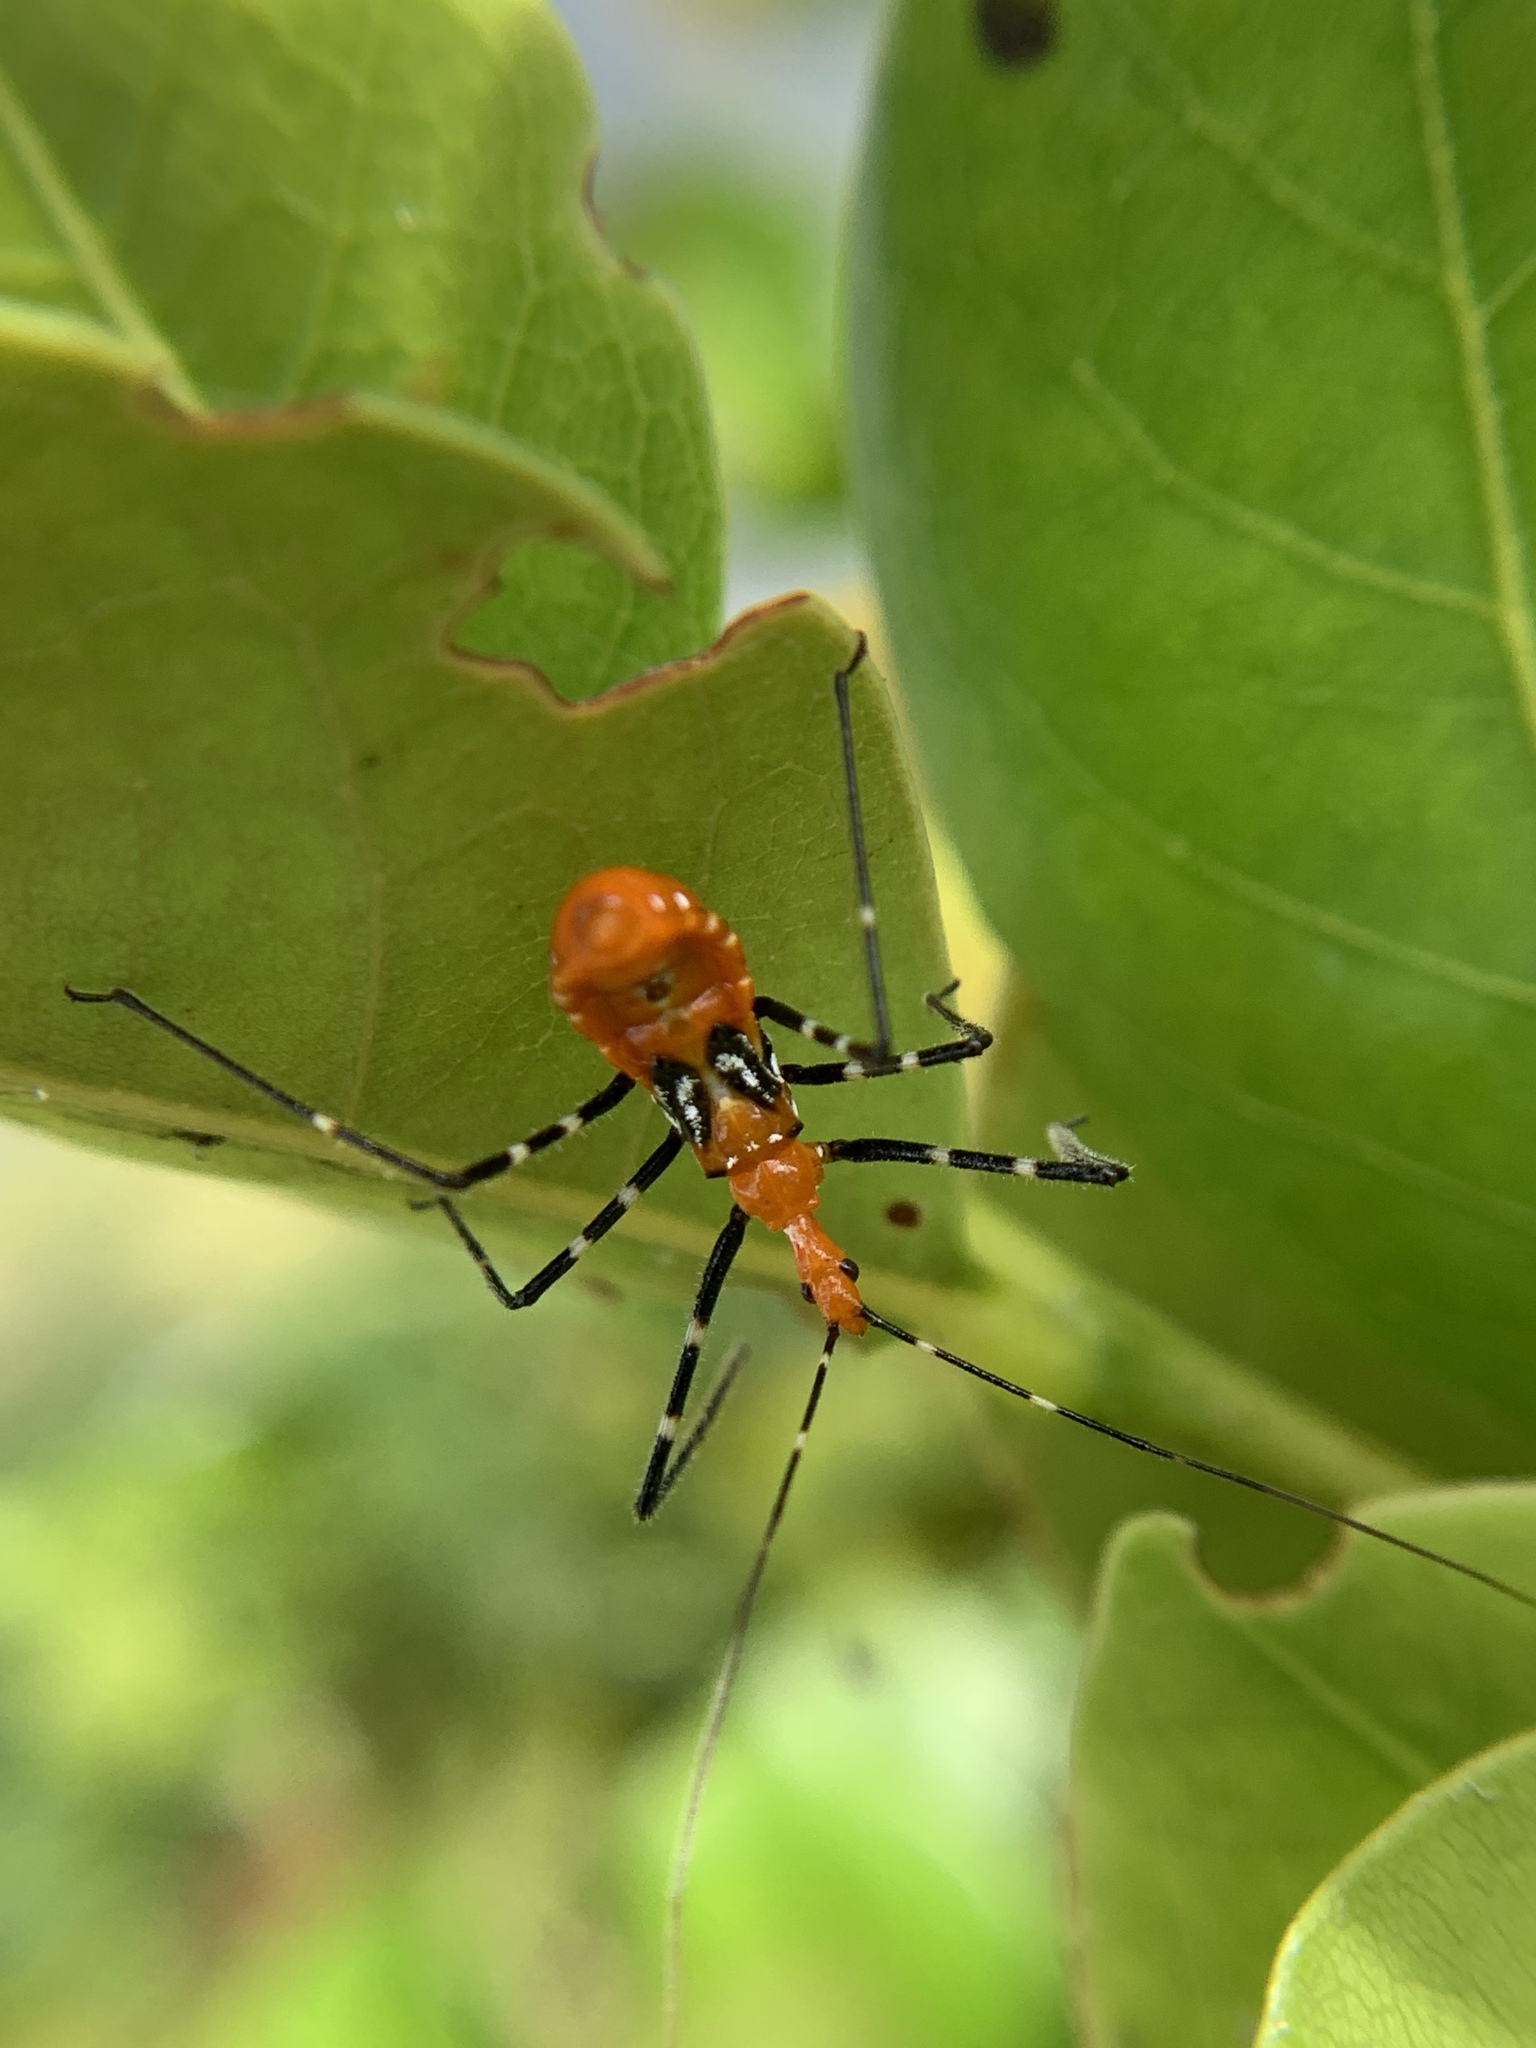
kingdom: Animalia
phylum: Arthropoda
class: Insecta
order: Hemiptera
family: Reduviidae
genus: Zelus
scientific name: Zelus longipes
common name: Milkweed assassin bug
